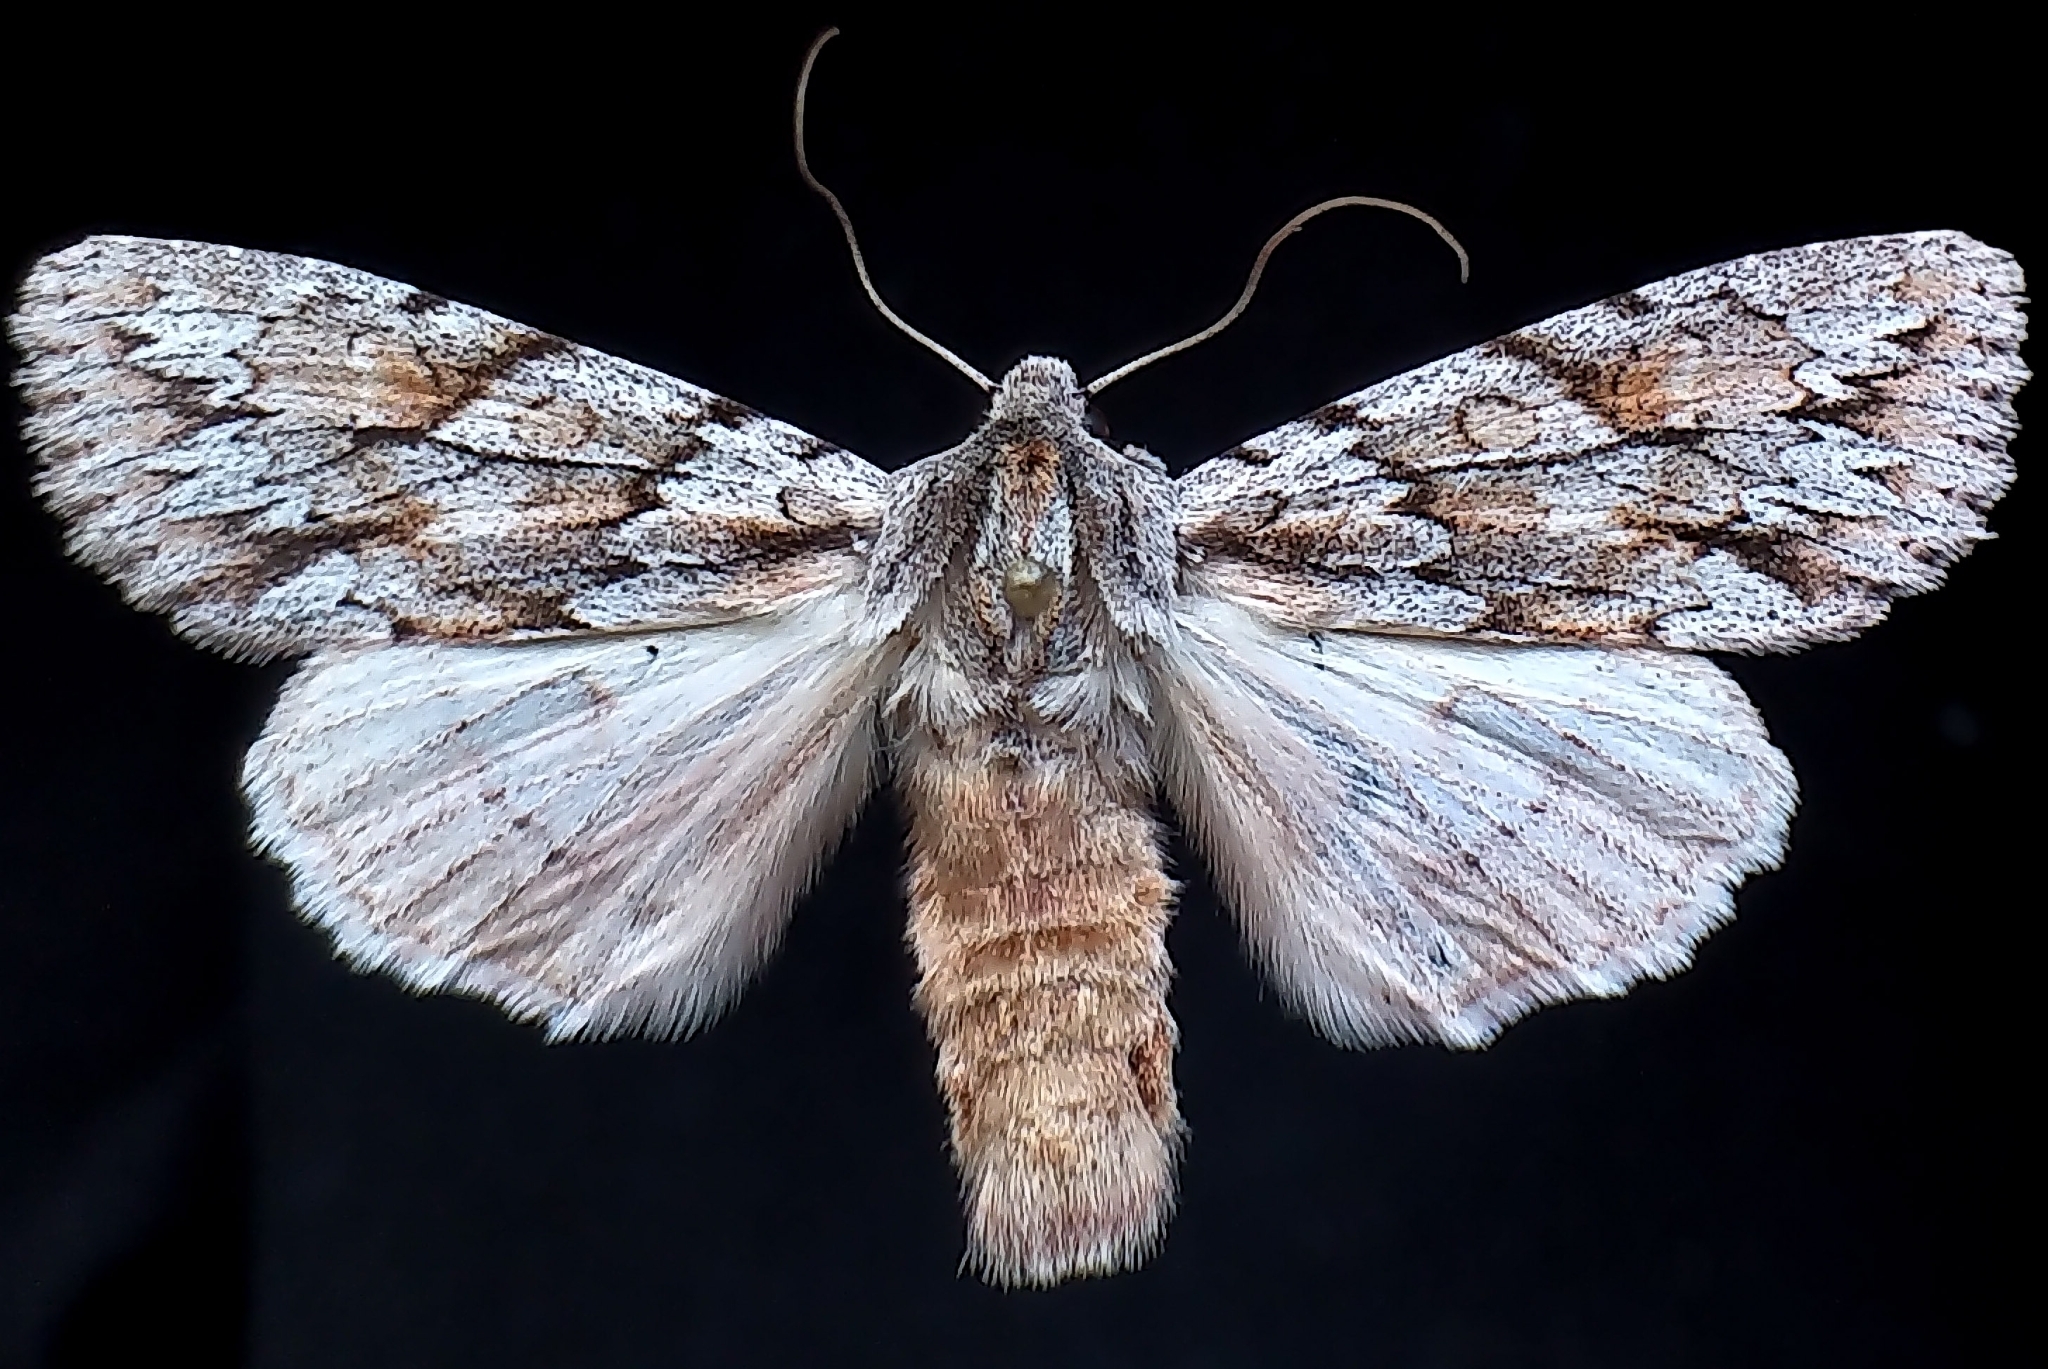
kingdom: Animalia
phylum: Arthropoda
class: Insecta
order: Lepidoptera
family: Noctuidae
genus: Andropolia
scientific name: Andropolia theodori
